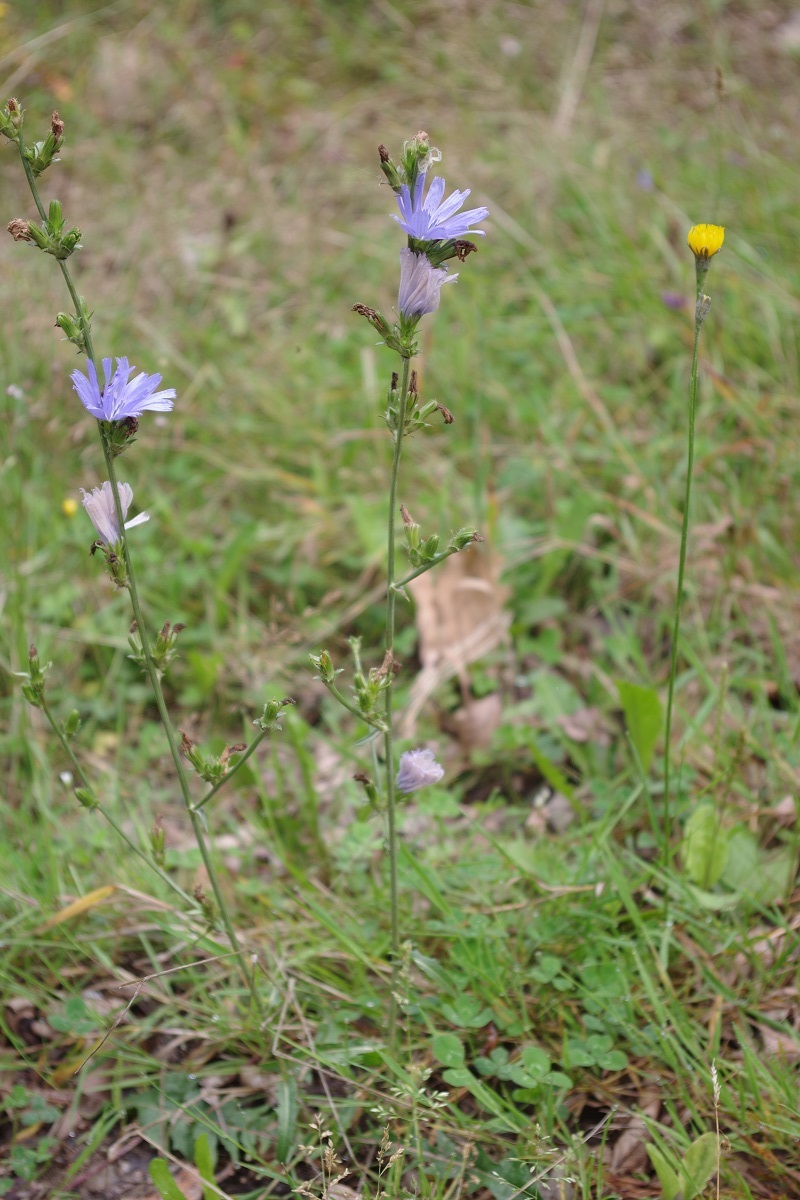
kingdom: Plantae
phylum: Tracheophyta
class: Magnoliopsida
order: Asterales
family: Asteraceae
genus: Cichorium
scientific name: Cichorium intybus
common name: Chicory
